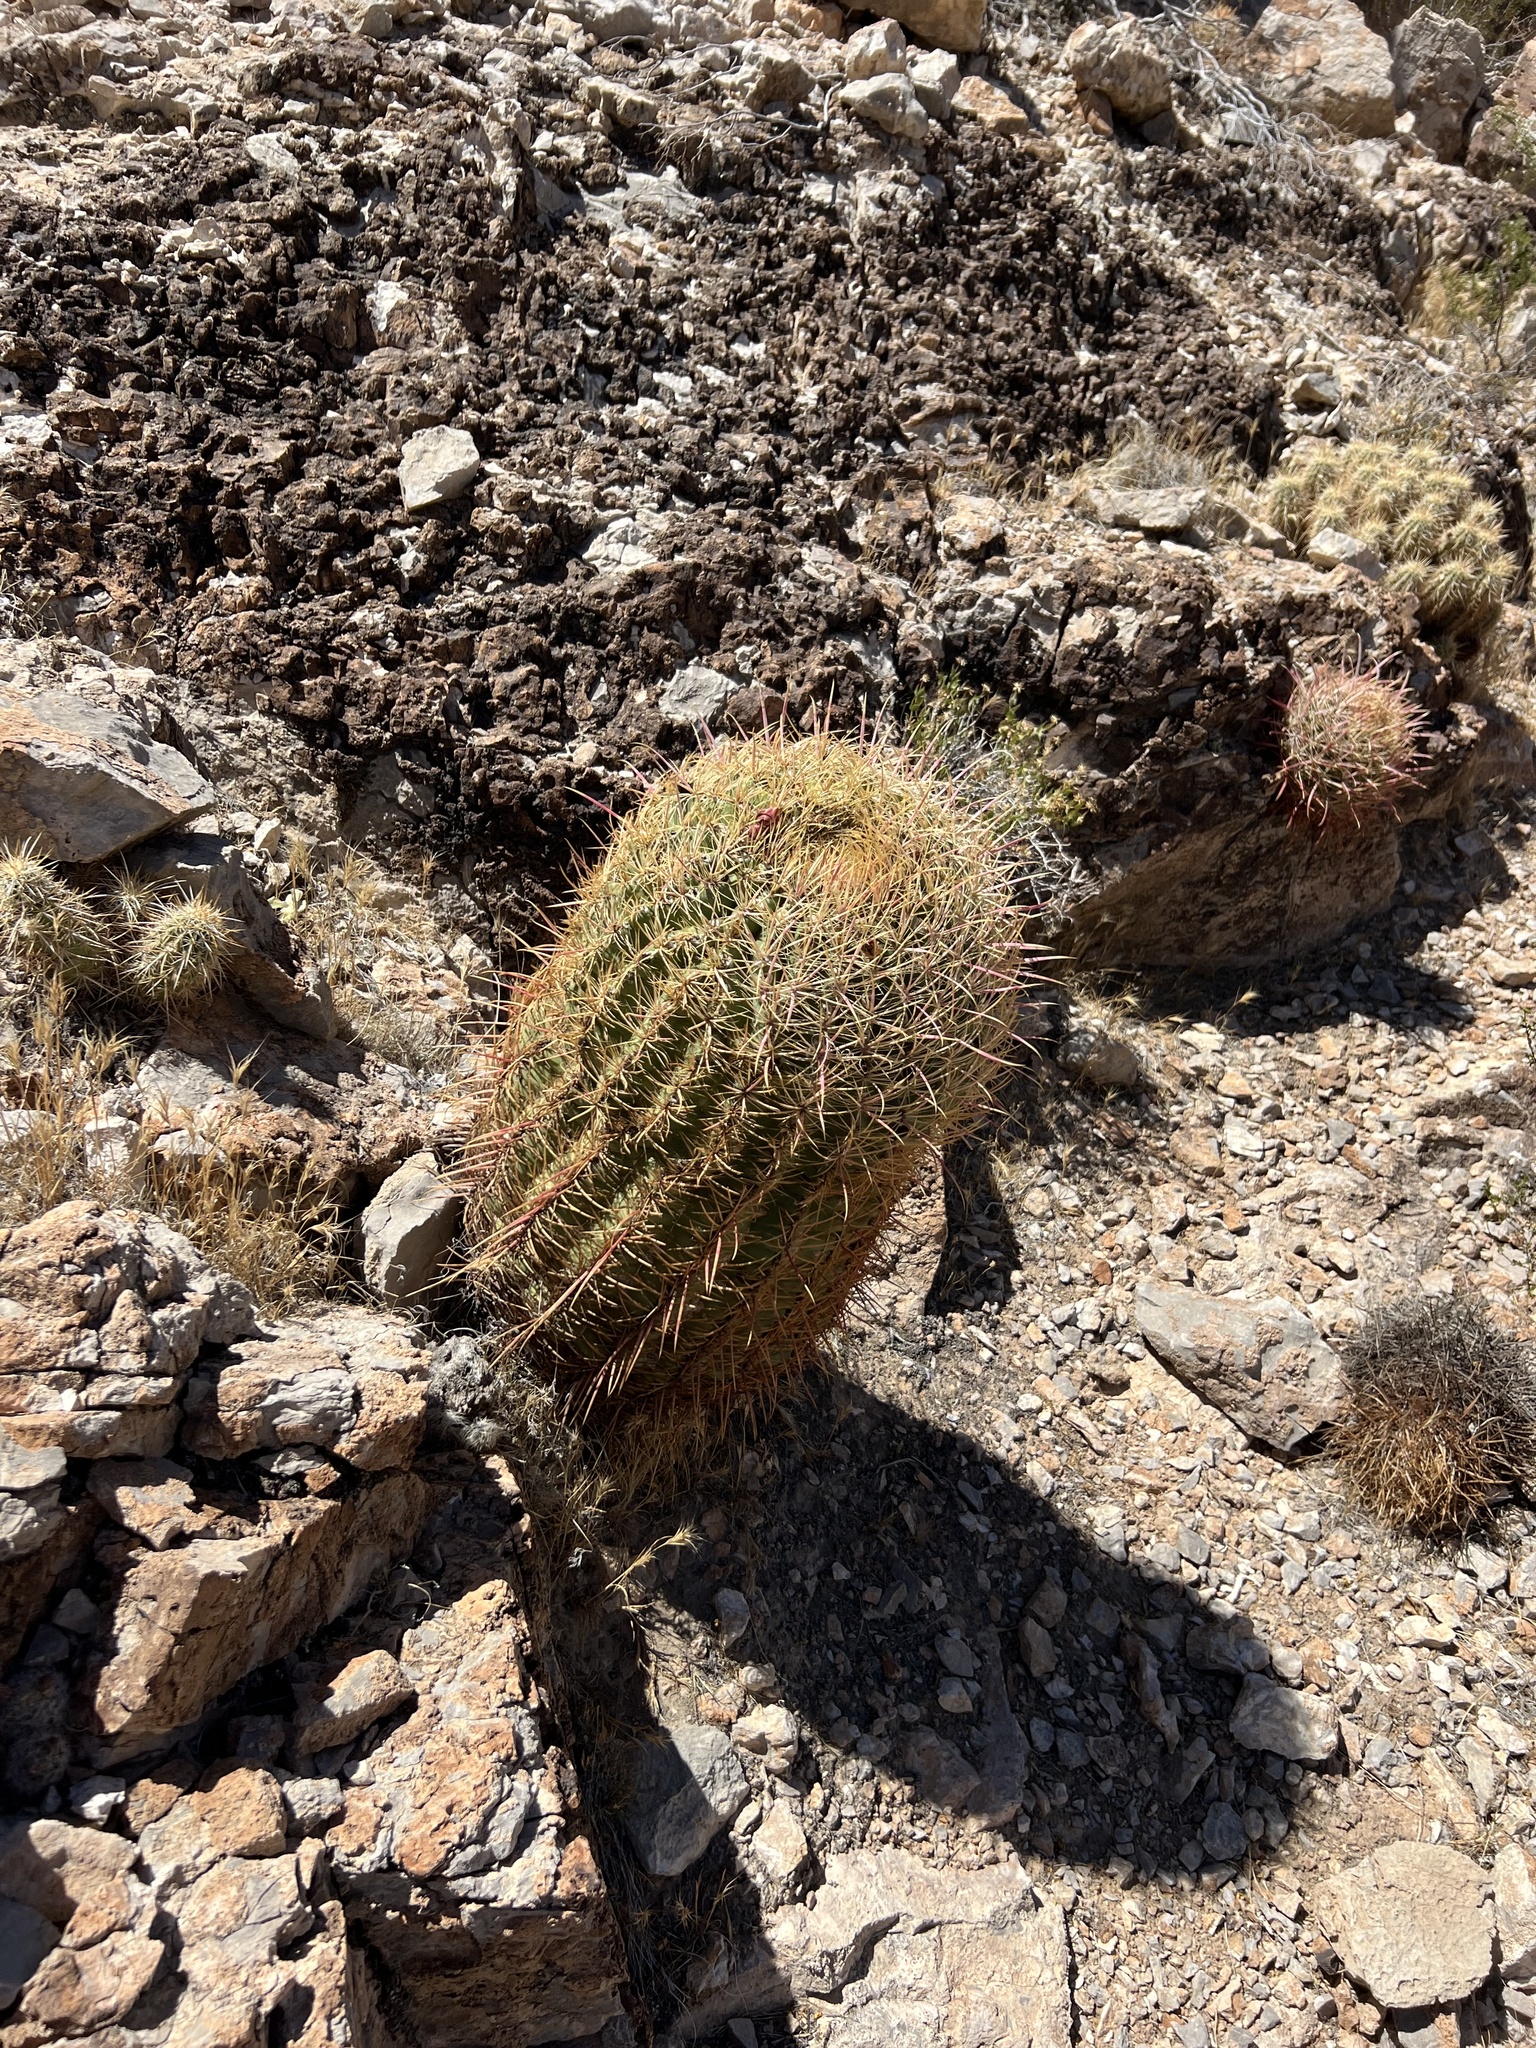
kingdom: Plantae
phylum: Tracheophyta
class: Magnoliopsida
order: Caryophyllales
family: Cactaceae
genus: Ferocactus
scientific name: Ferocactus cylindraceus
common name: California barrel cactus
